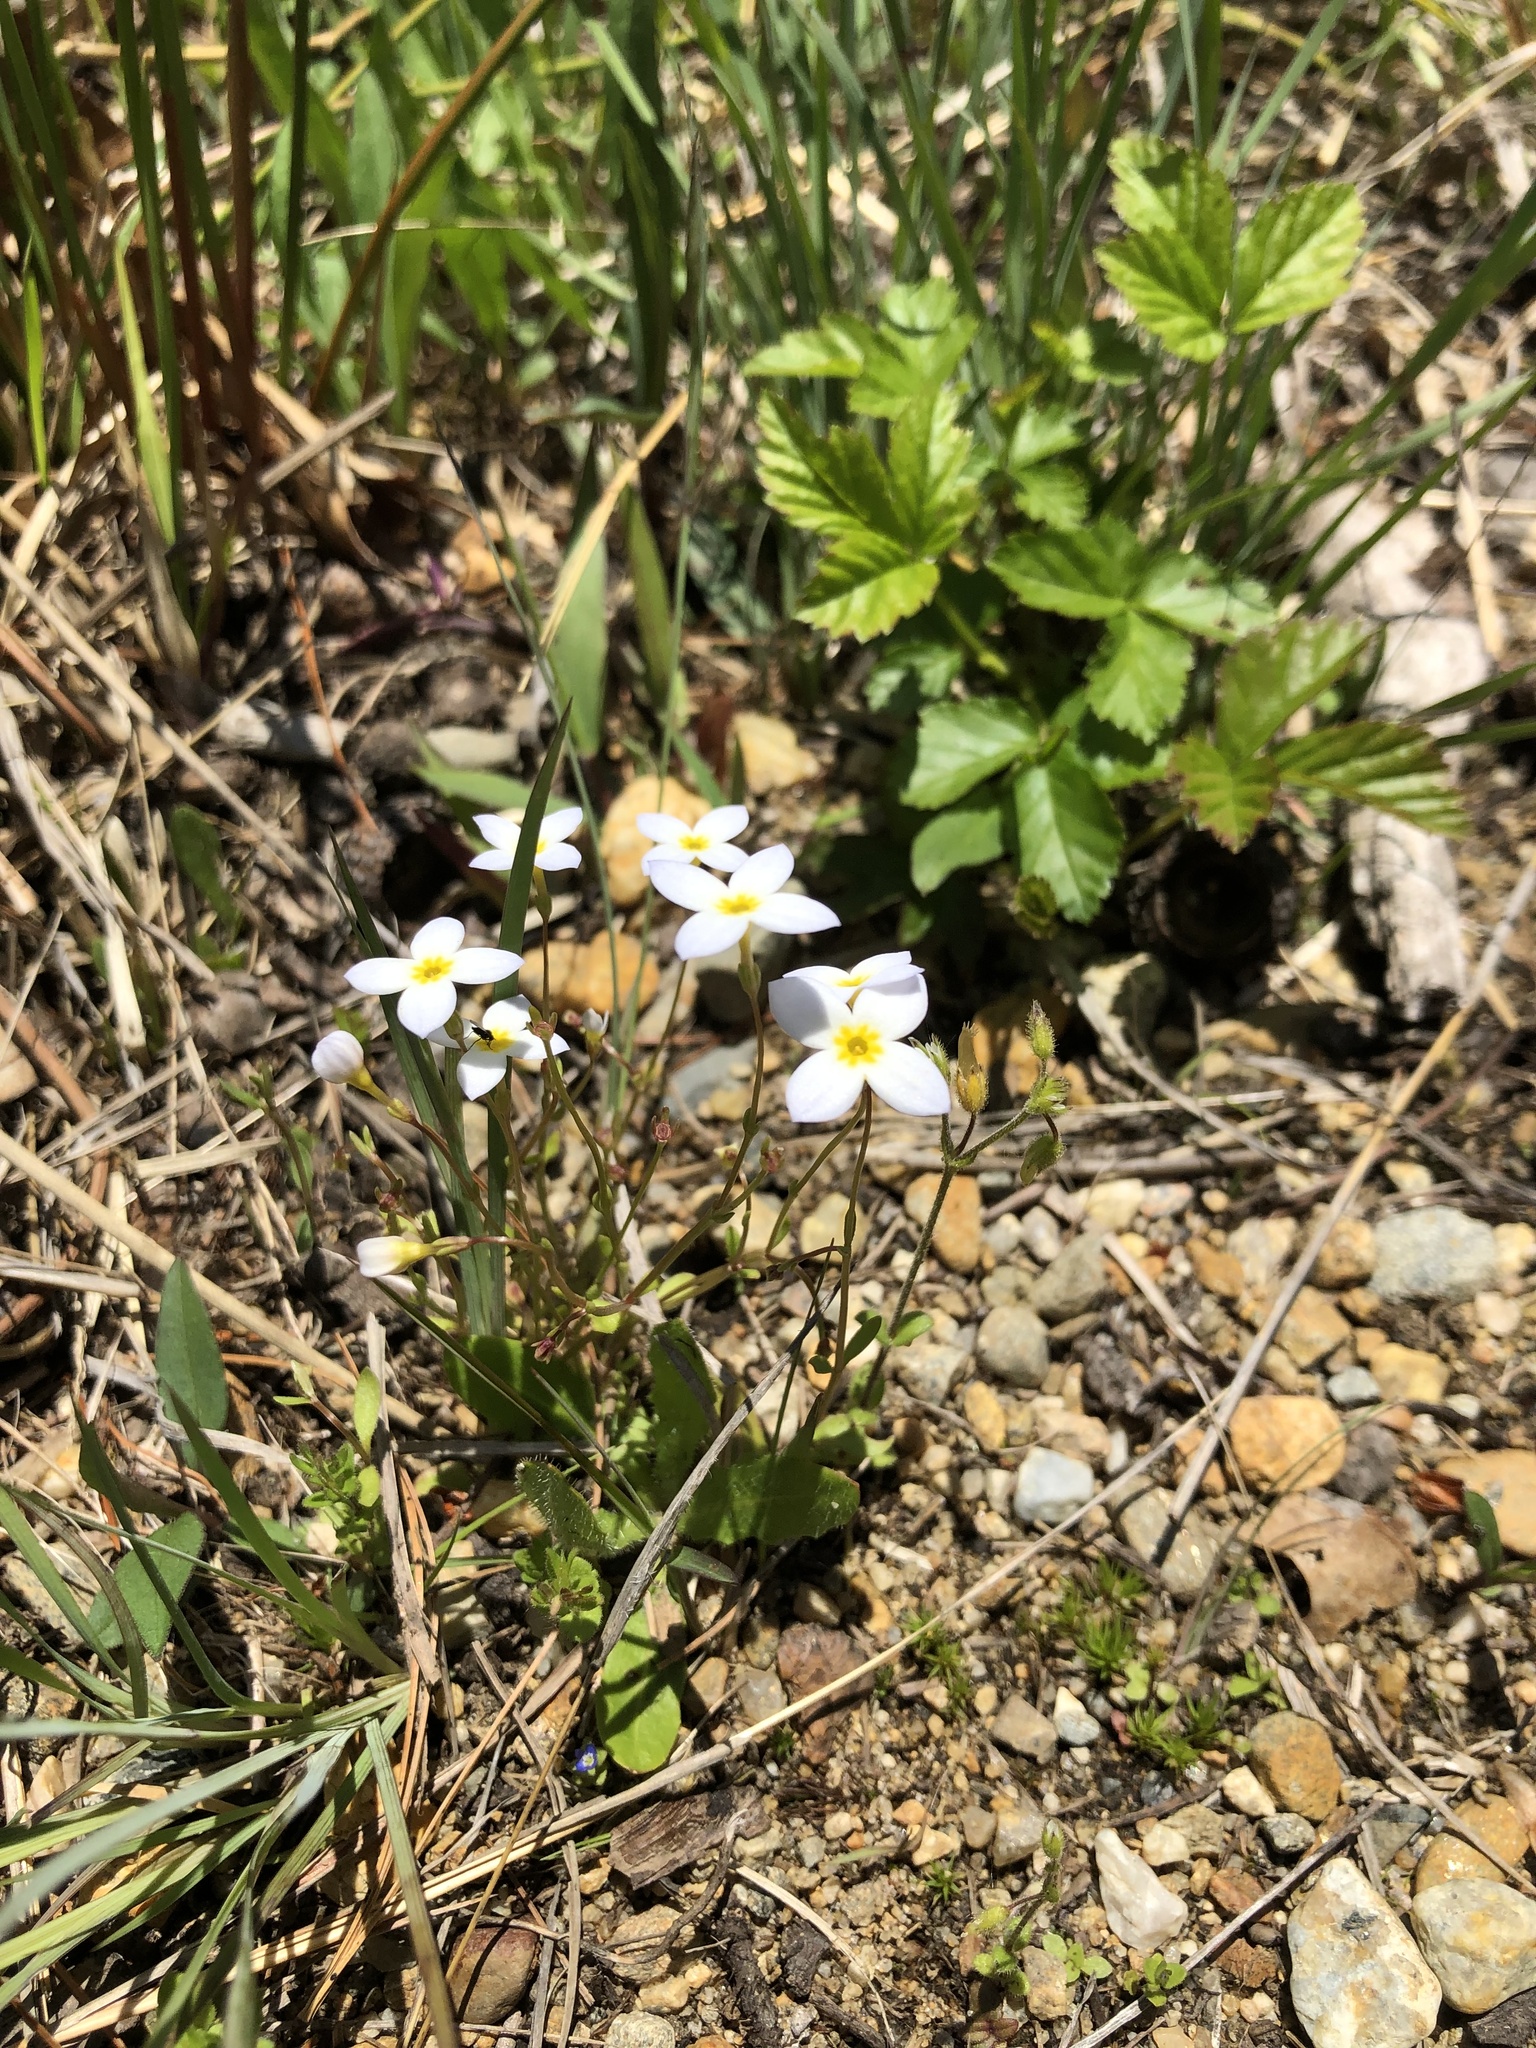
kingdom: Plantae
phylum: Tracheophyta
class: Magnoliopsida
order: Gentianales
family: Rubiaceae
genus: Houstonia
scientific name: Houstonia caerulea
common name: Bluets
